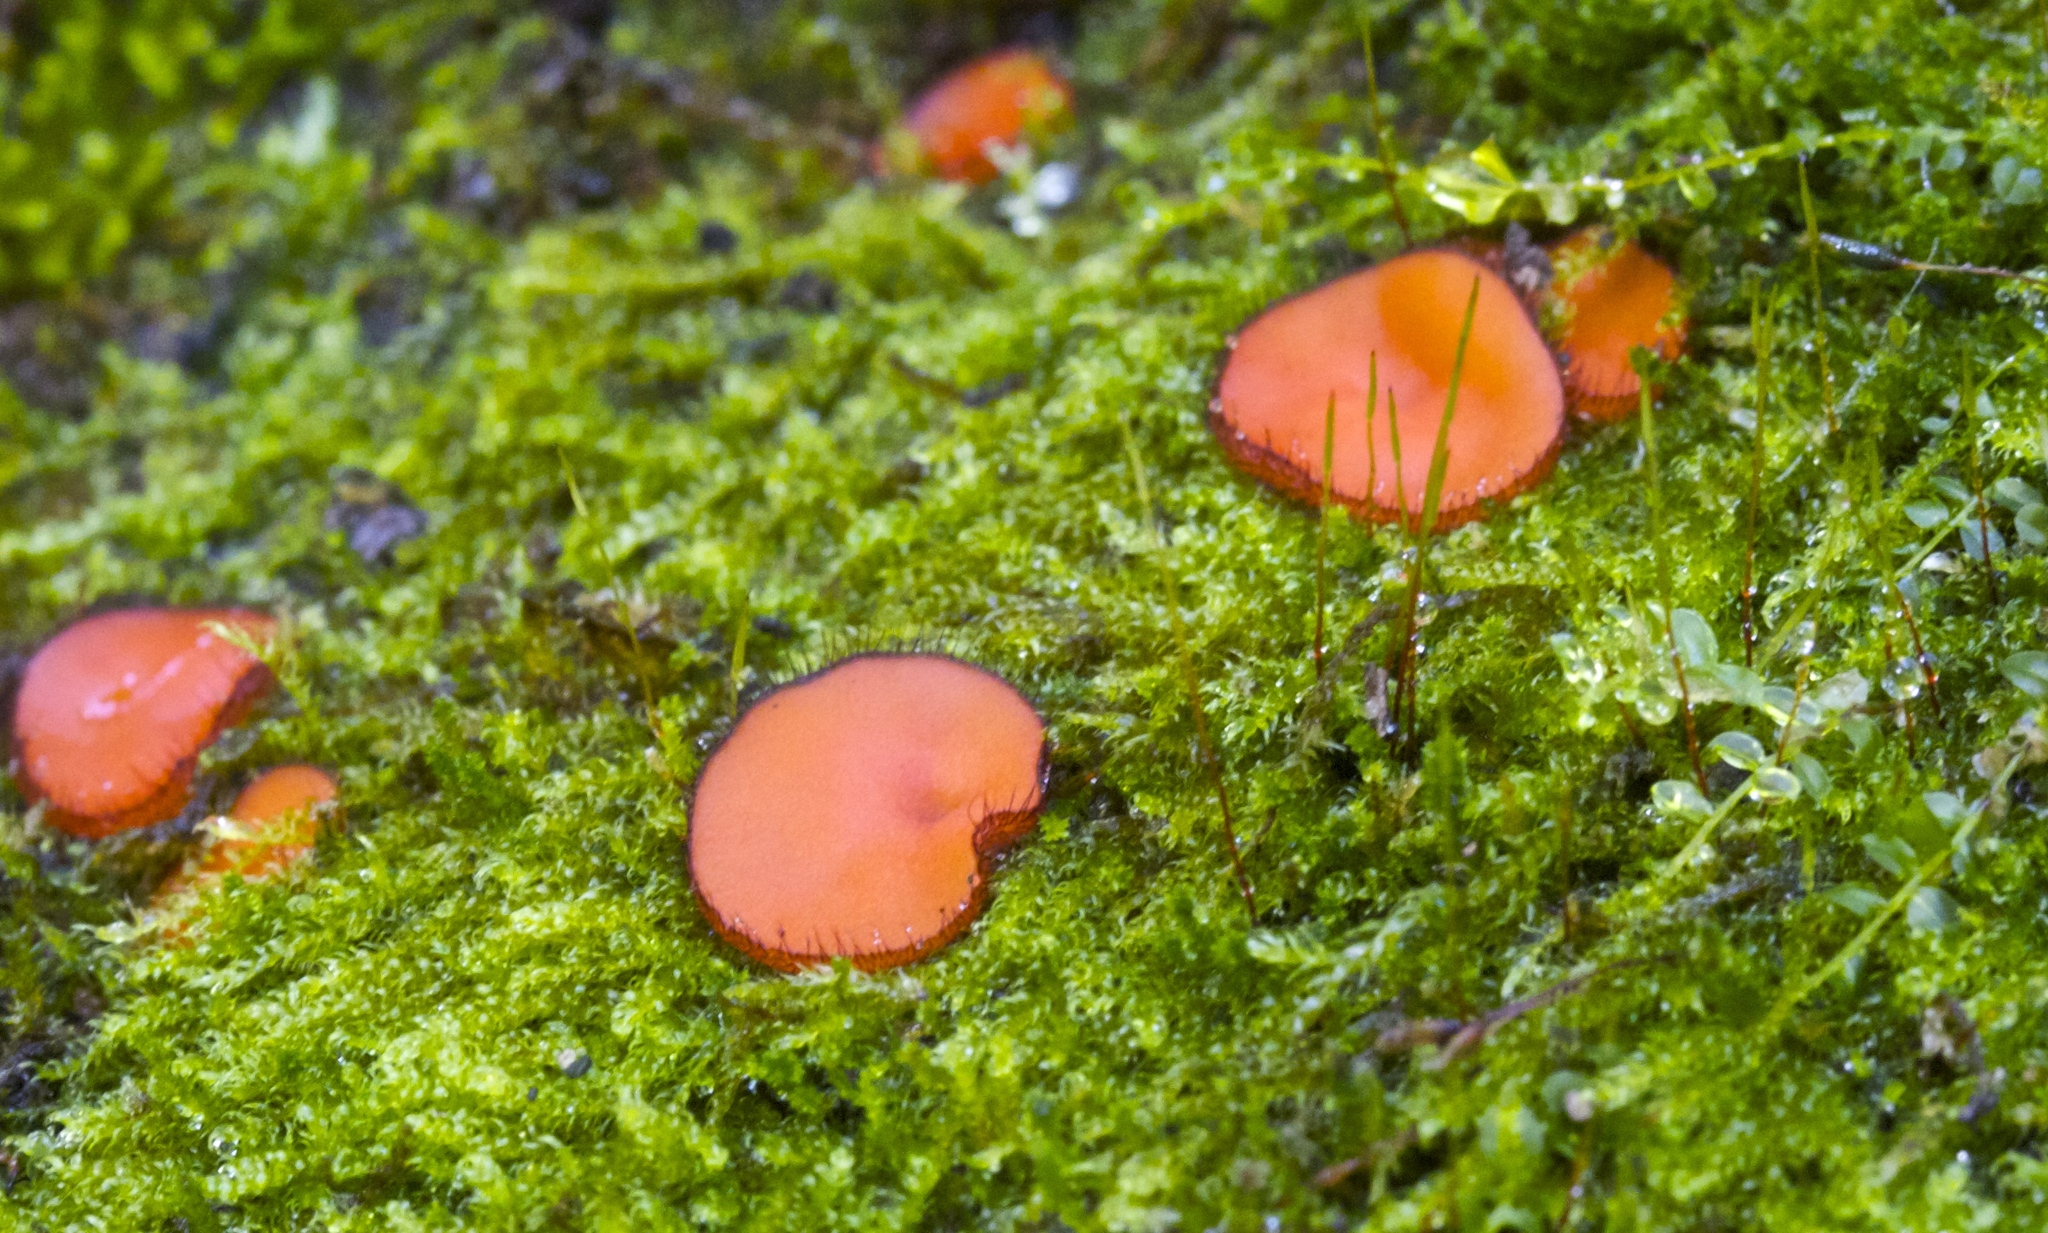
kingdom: Fungi
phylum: Ascomycota
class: Pezizomycetes
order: Pezizales
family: Pyronemataceae
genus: Scutellinia
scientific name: Scutellinia scutellata
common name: Common eyelash
